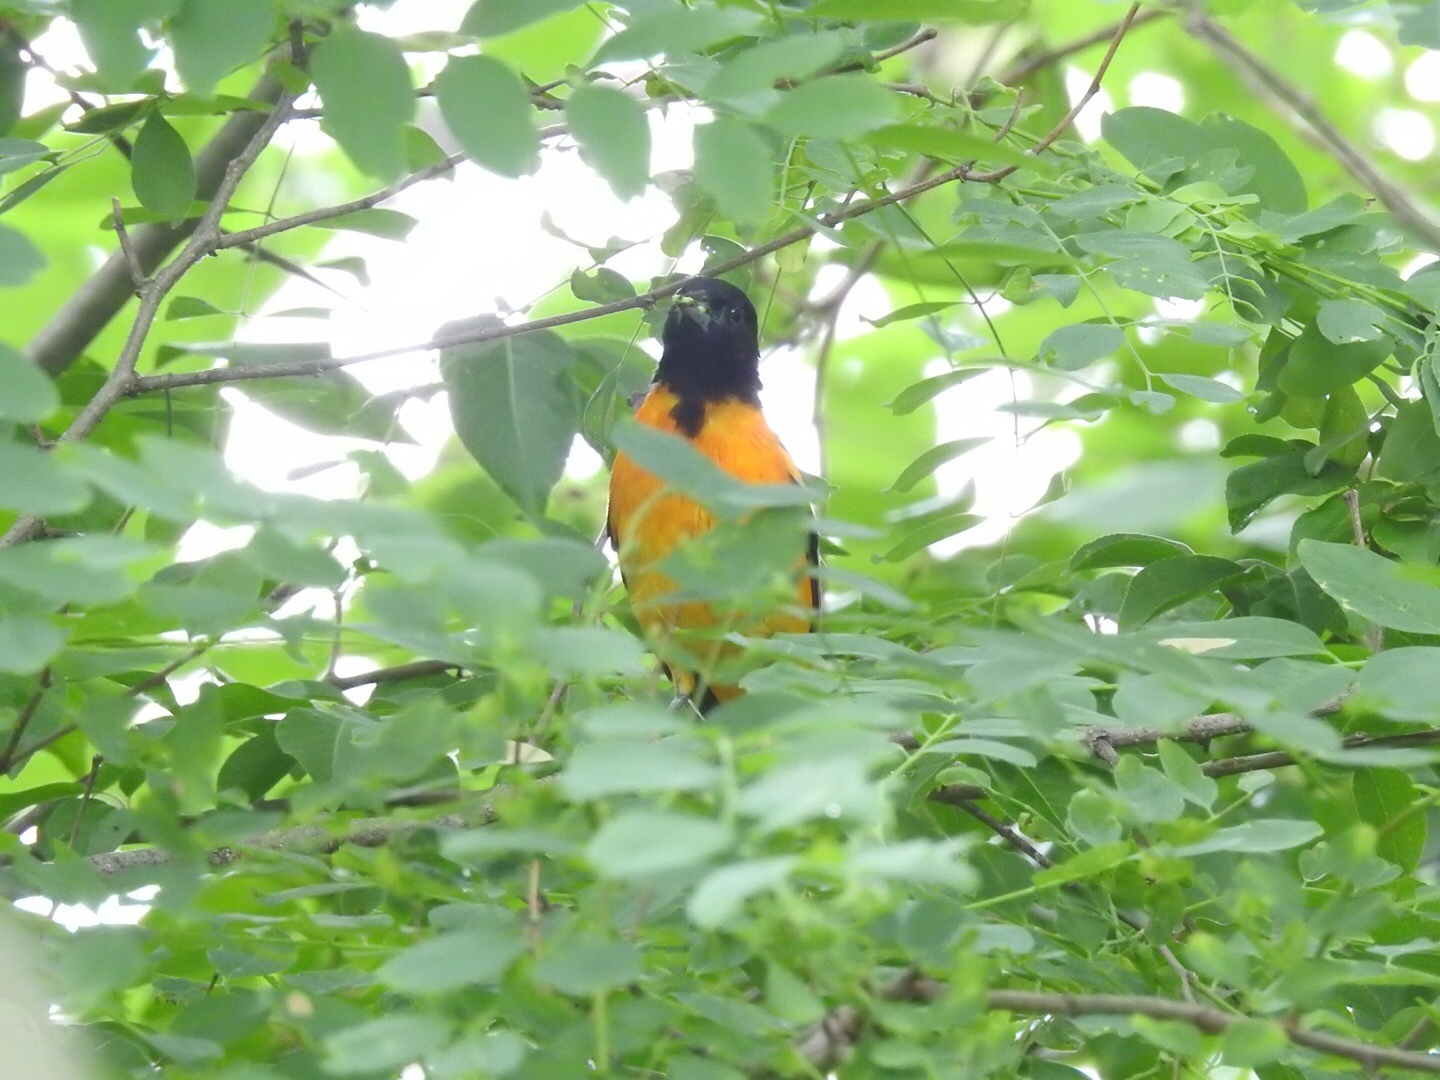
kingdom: Animalia
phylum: Chordata
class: Aves
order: Passeriformes
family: Icteridae
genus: Icterus
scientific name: Icterus galbula
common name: Baltimore oriole
